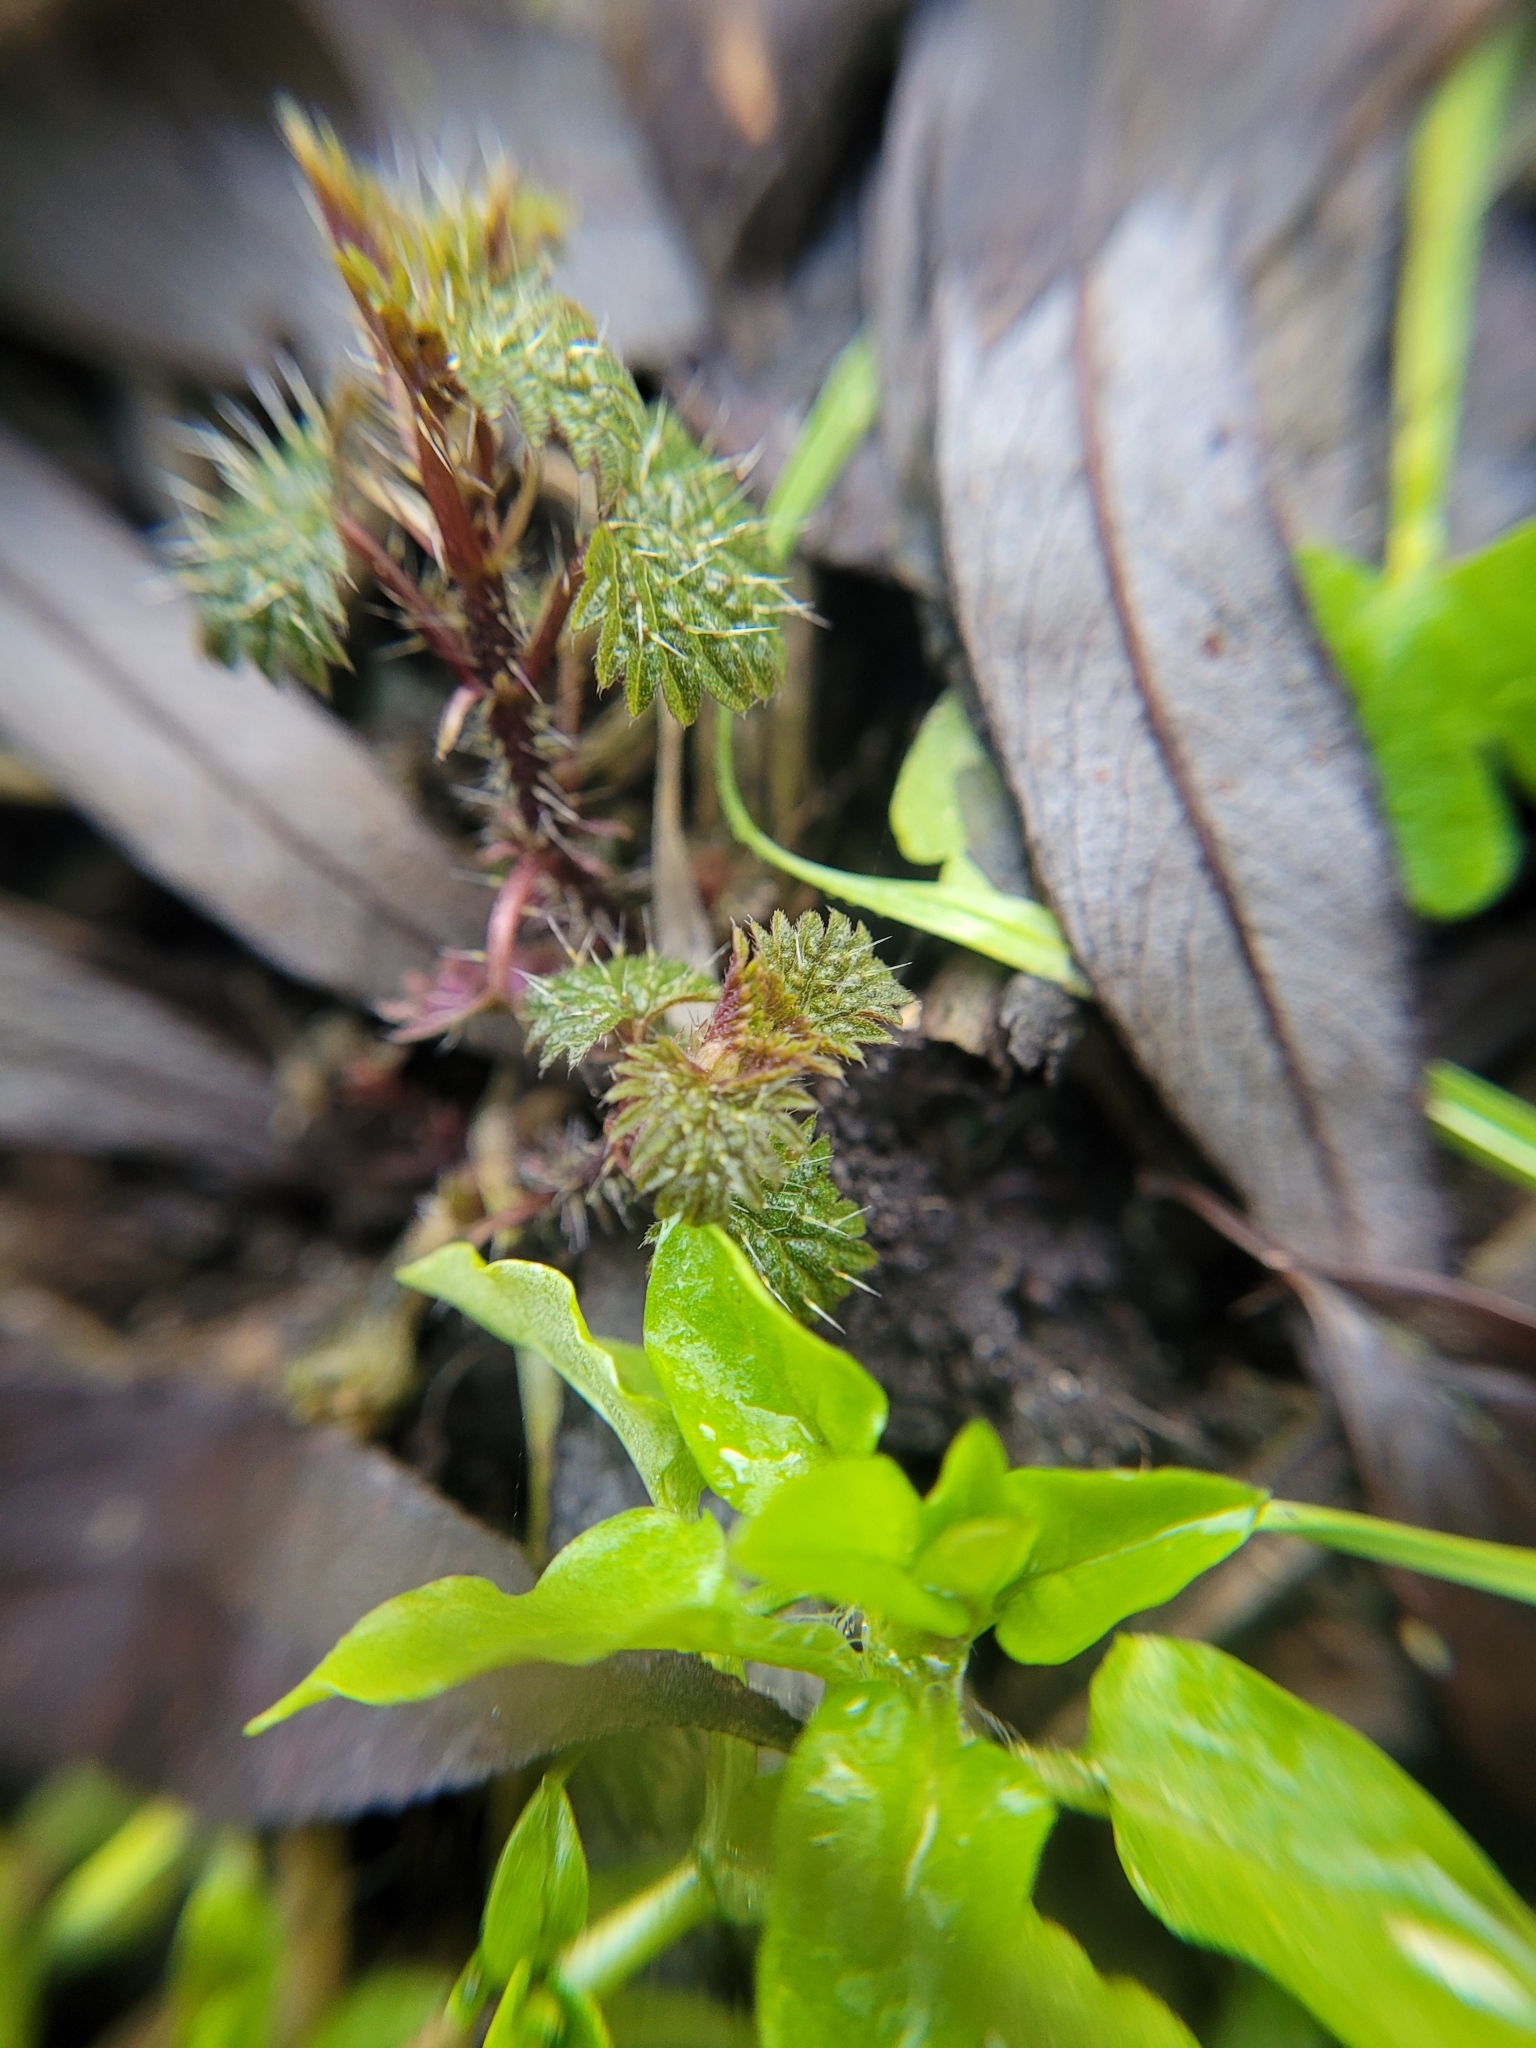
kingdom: Plantae
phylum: Tracheophyta
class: Magnoliopsida
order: Rosales
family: Urticaceae
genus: Urtica
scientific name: Urtica dioica
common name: Common nettle
